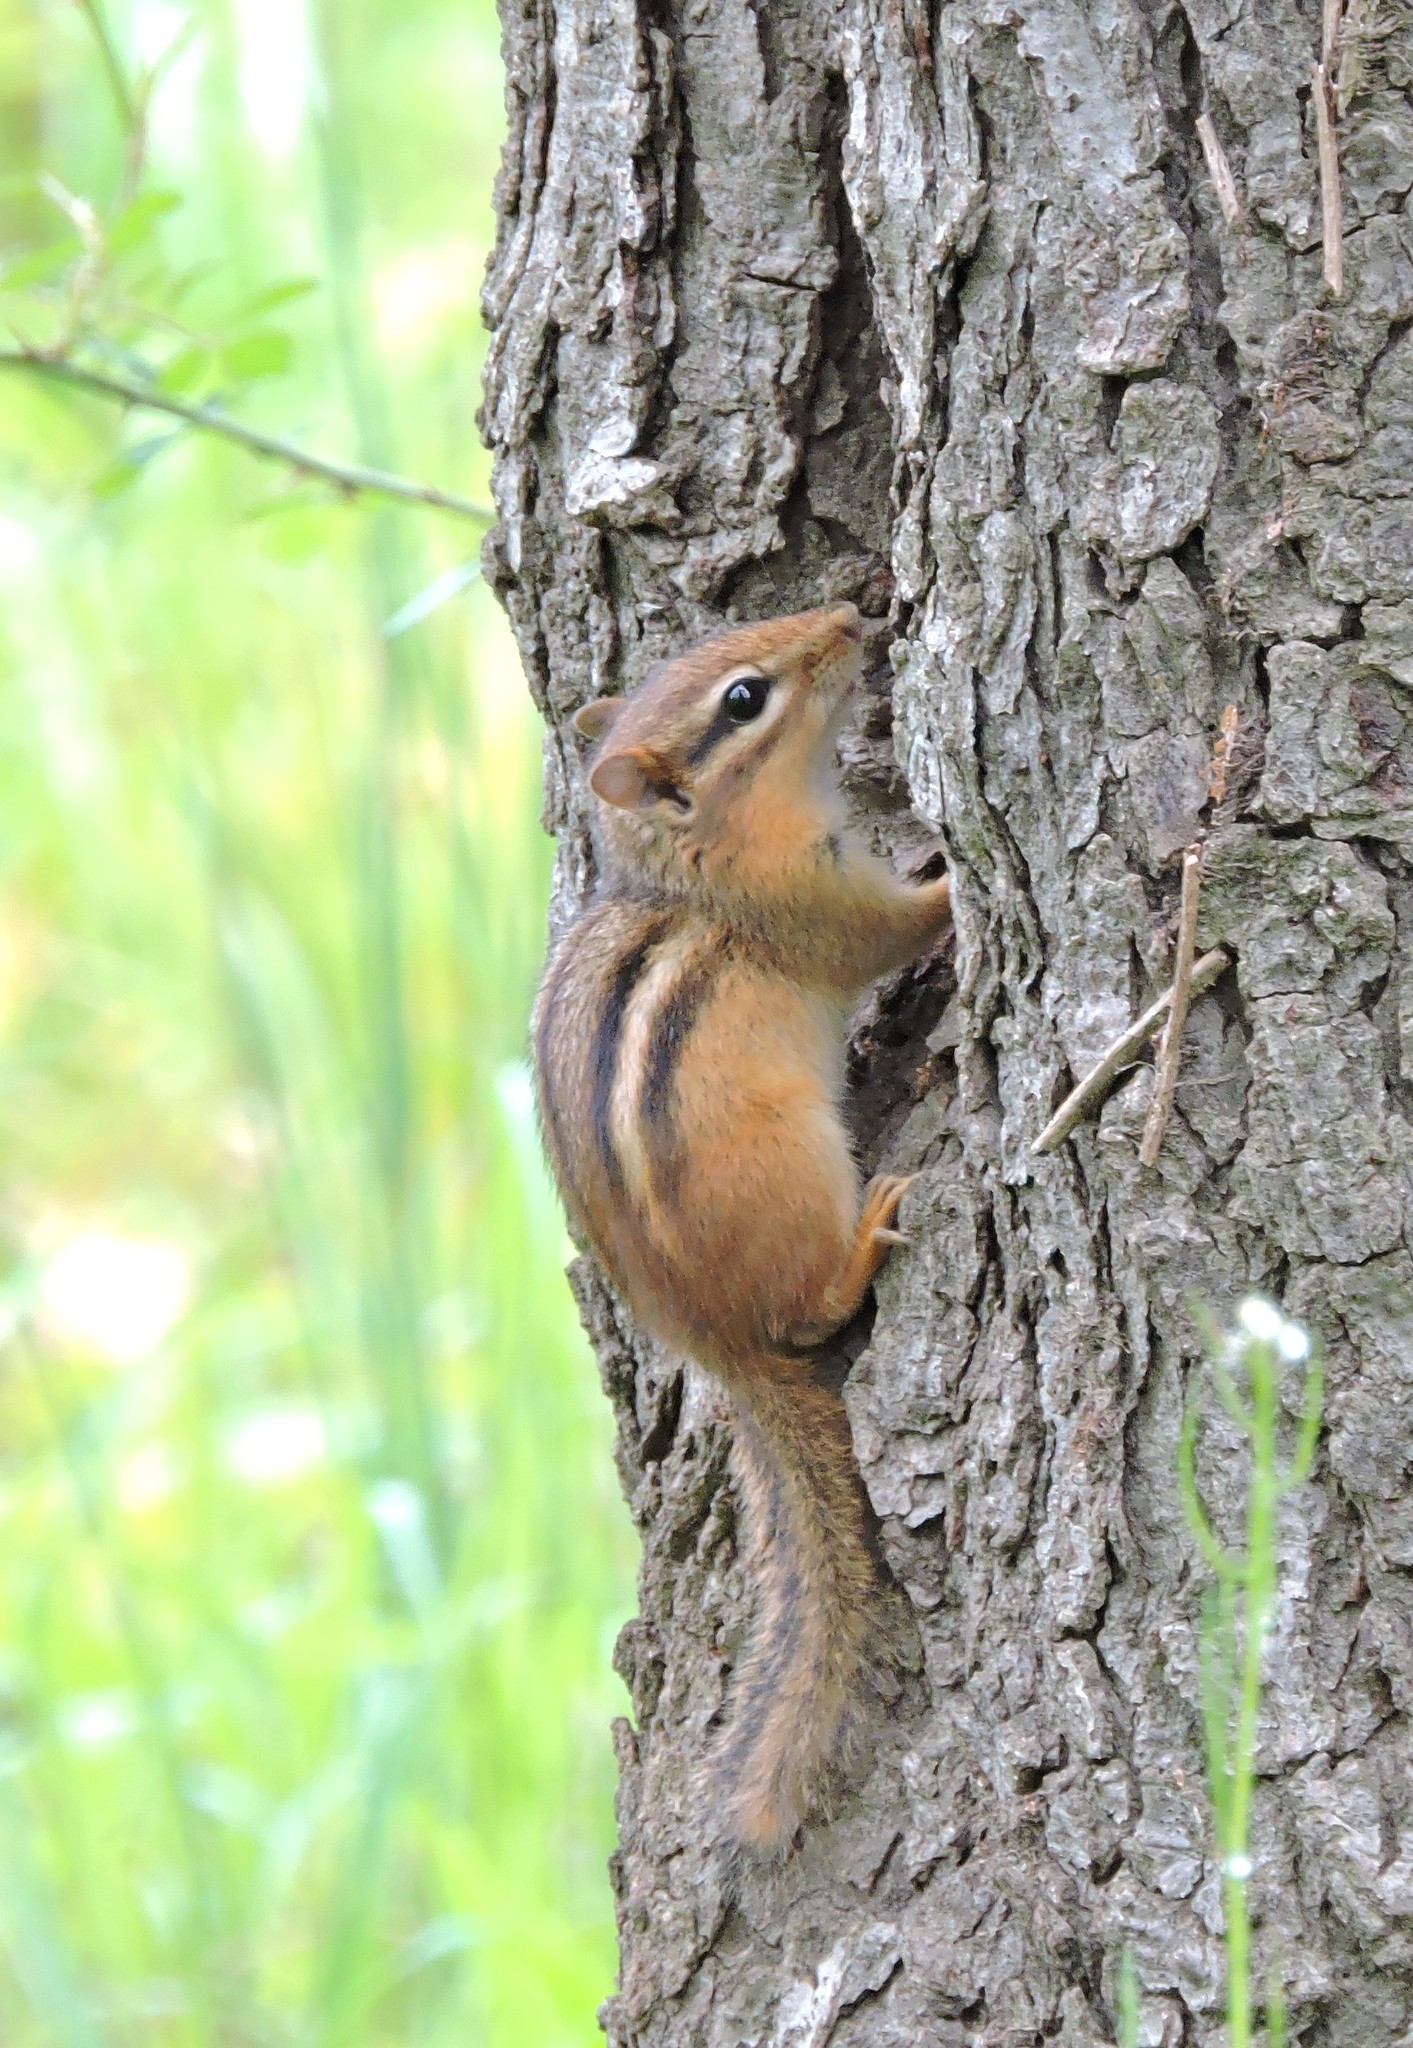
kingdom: Animalia
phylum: Chordata
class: Mammalia
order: Rodentia
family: Sciuridae
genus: Tamias
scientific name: Tamias striatus
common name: Eastern chipmunk
